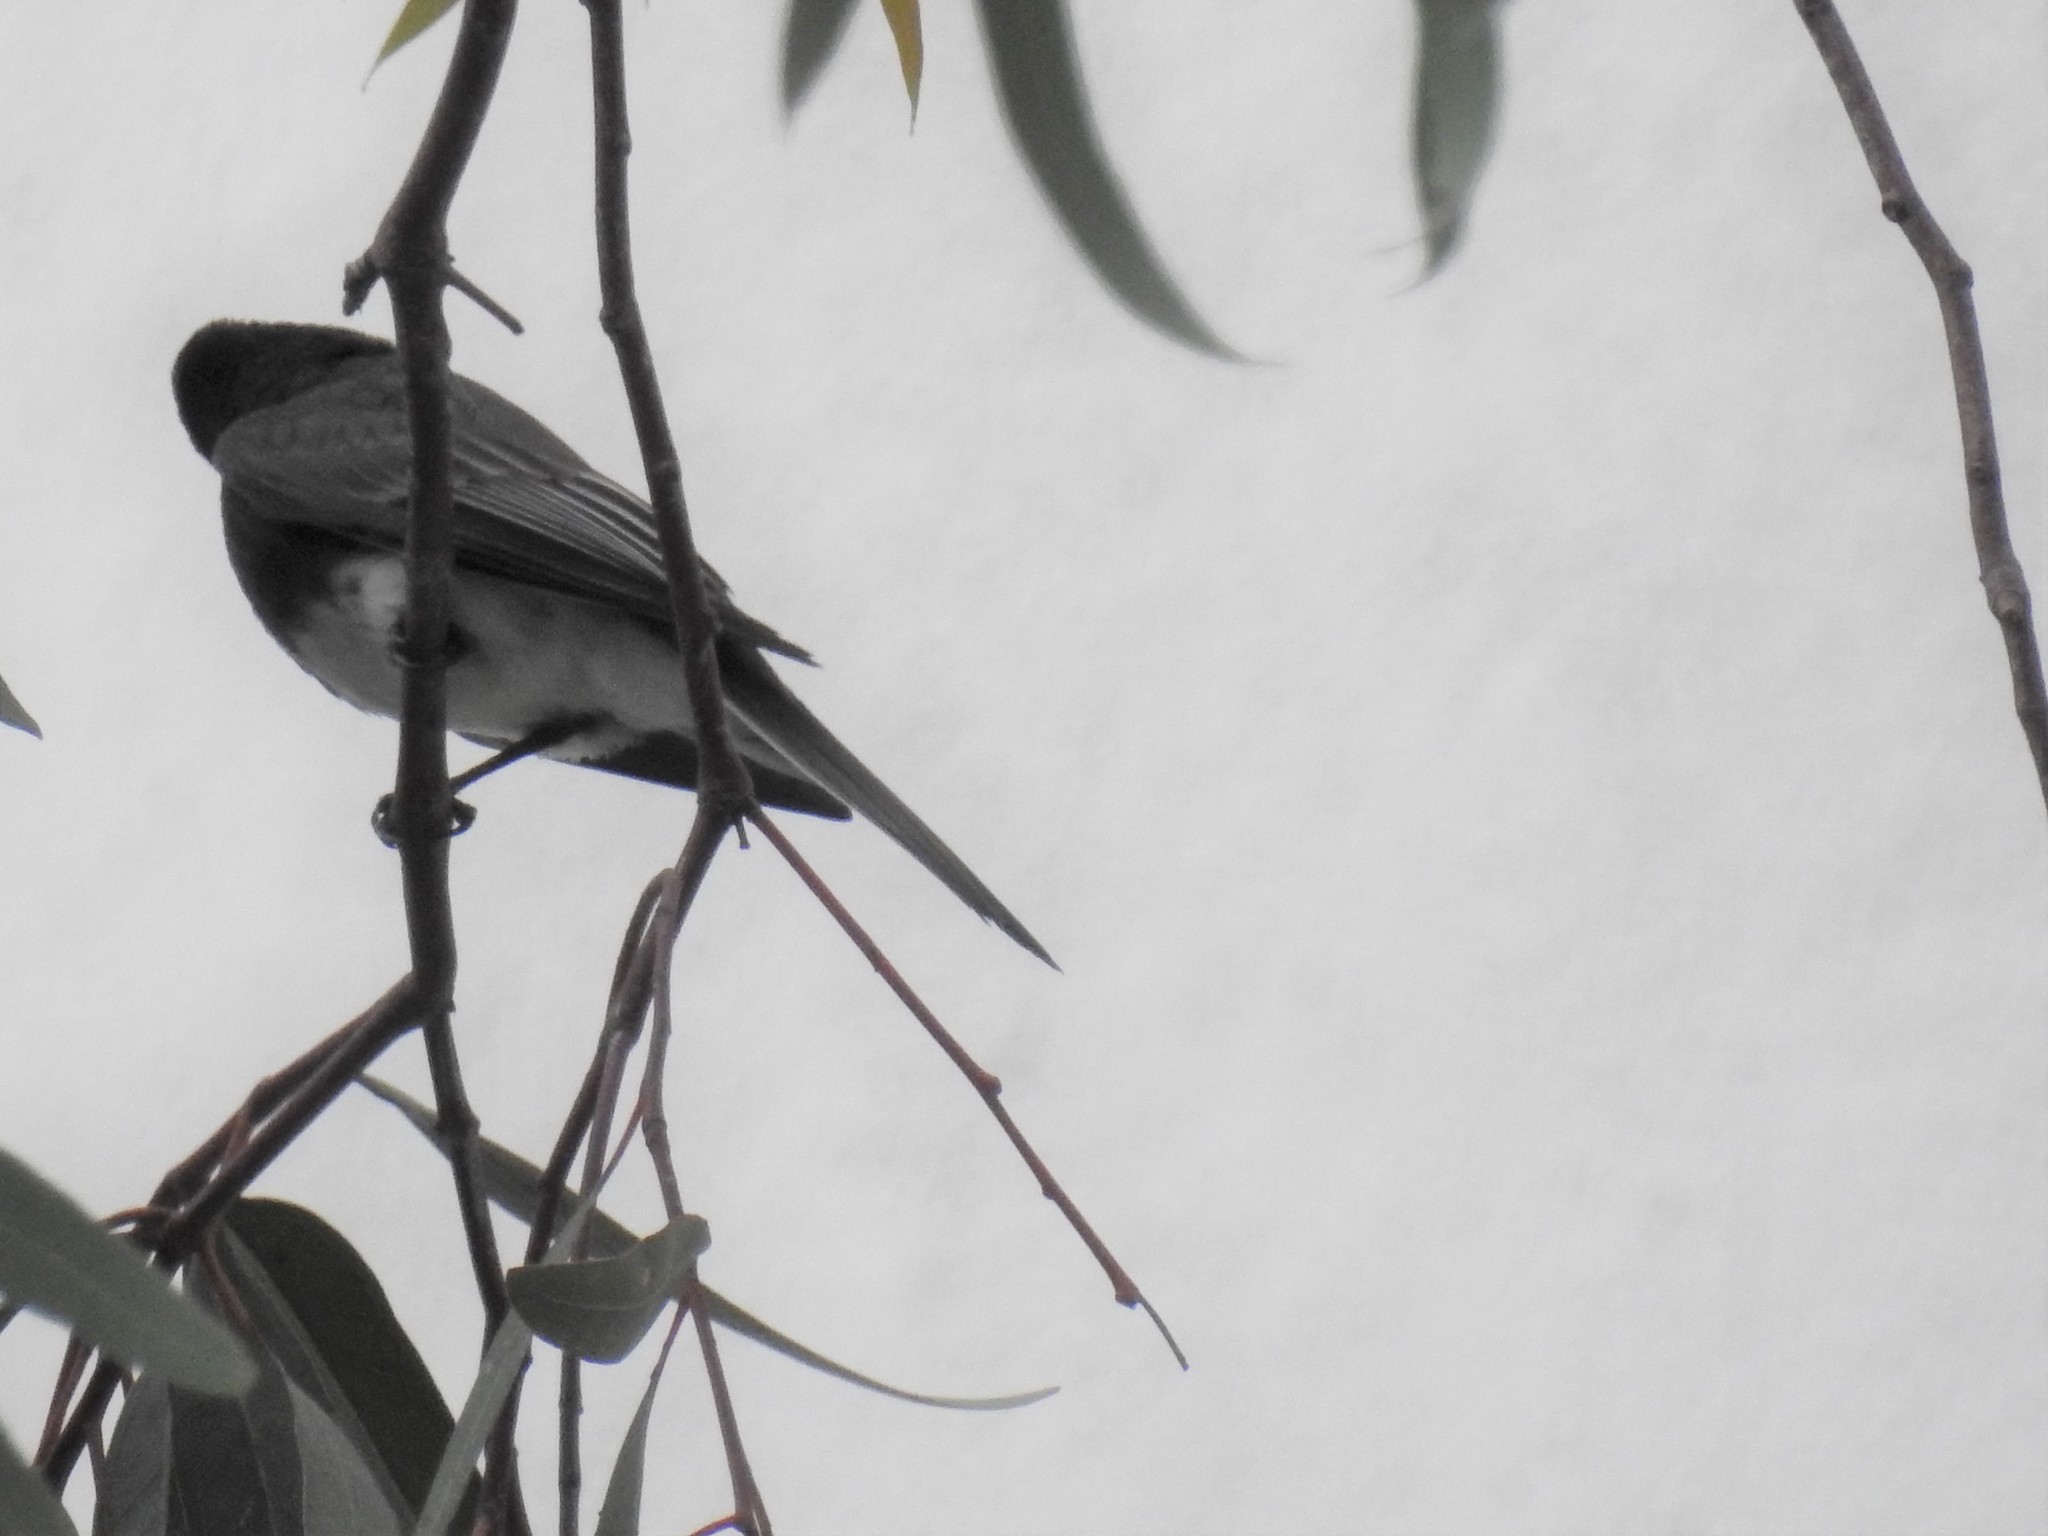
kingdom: Animalia
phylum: Chordata
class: Aves
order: Passeriformes
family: Tyrannidae
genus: Sayornis
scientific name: Sayornis nigricans
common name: Black phoebe
